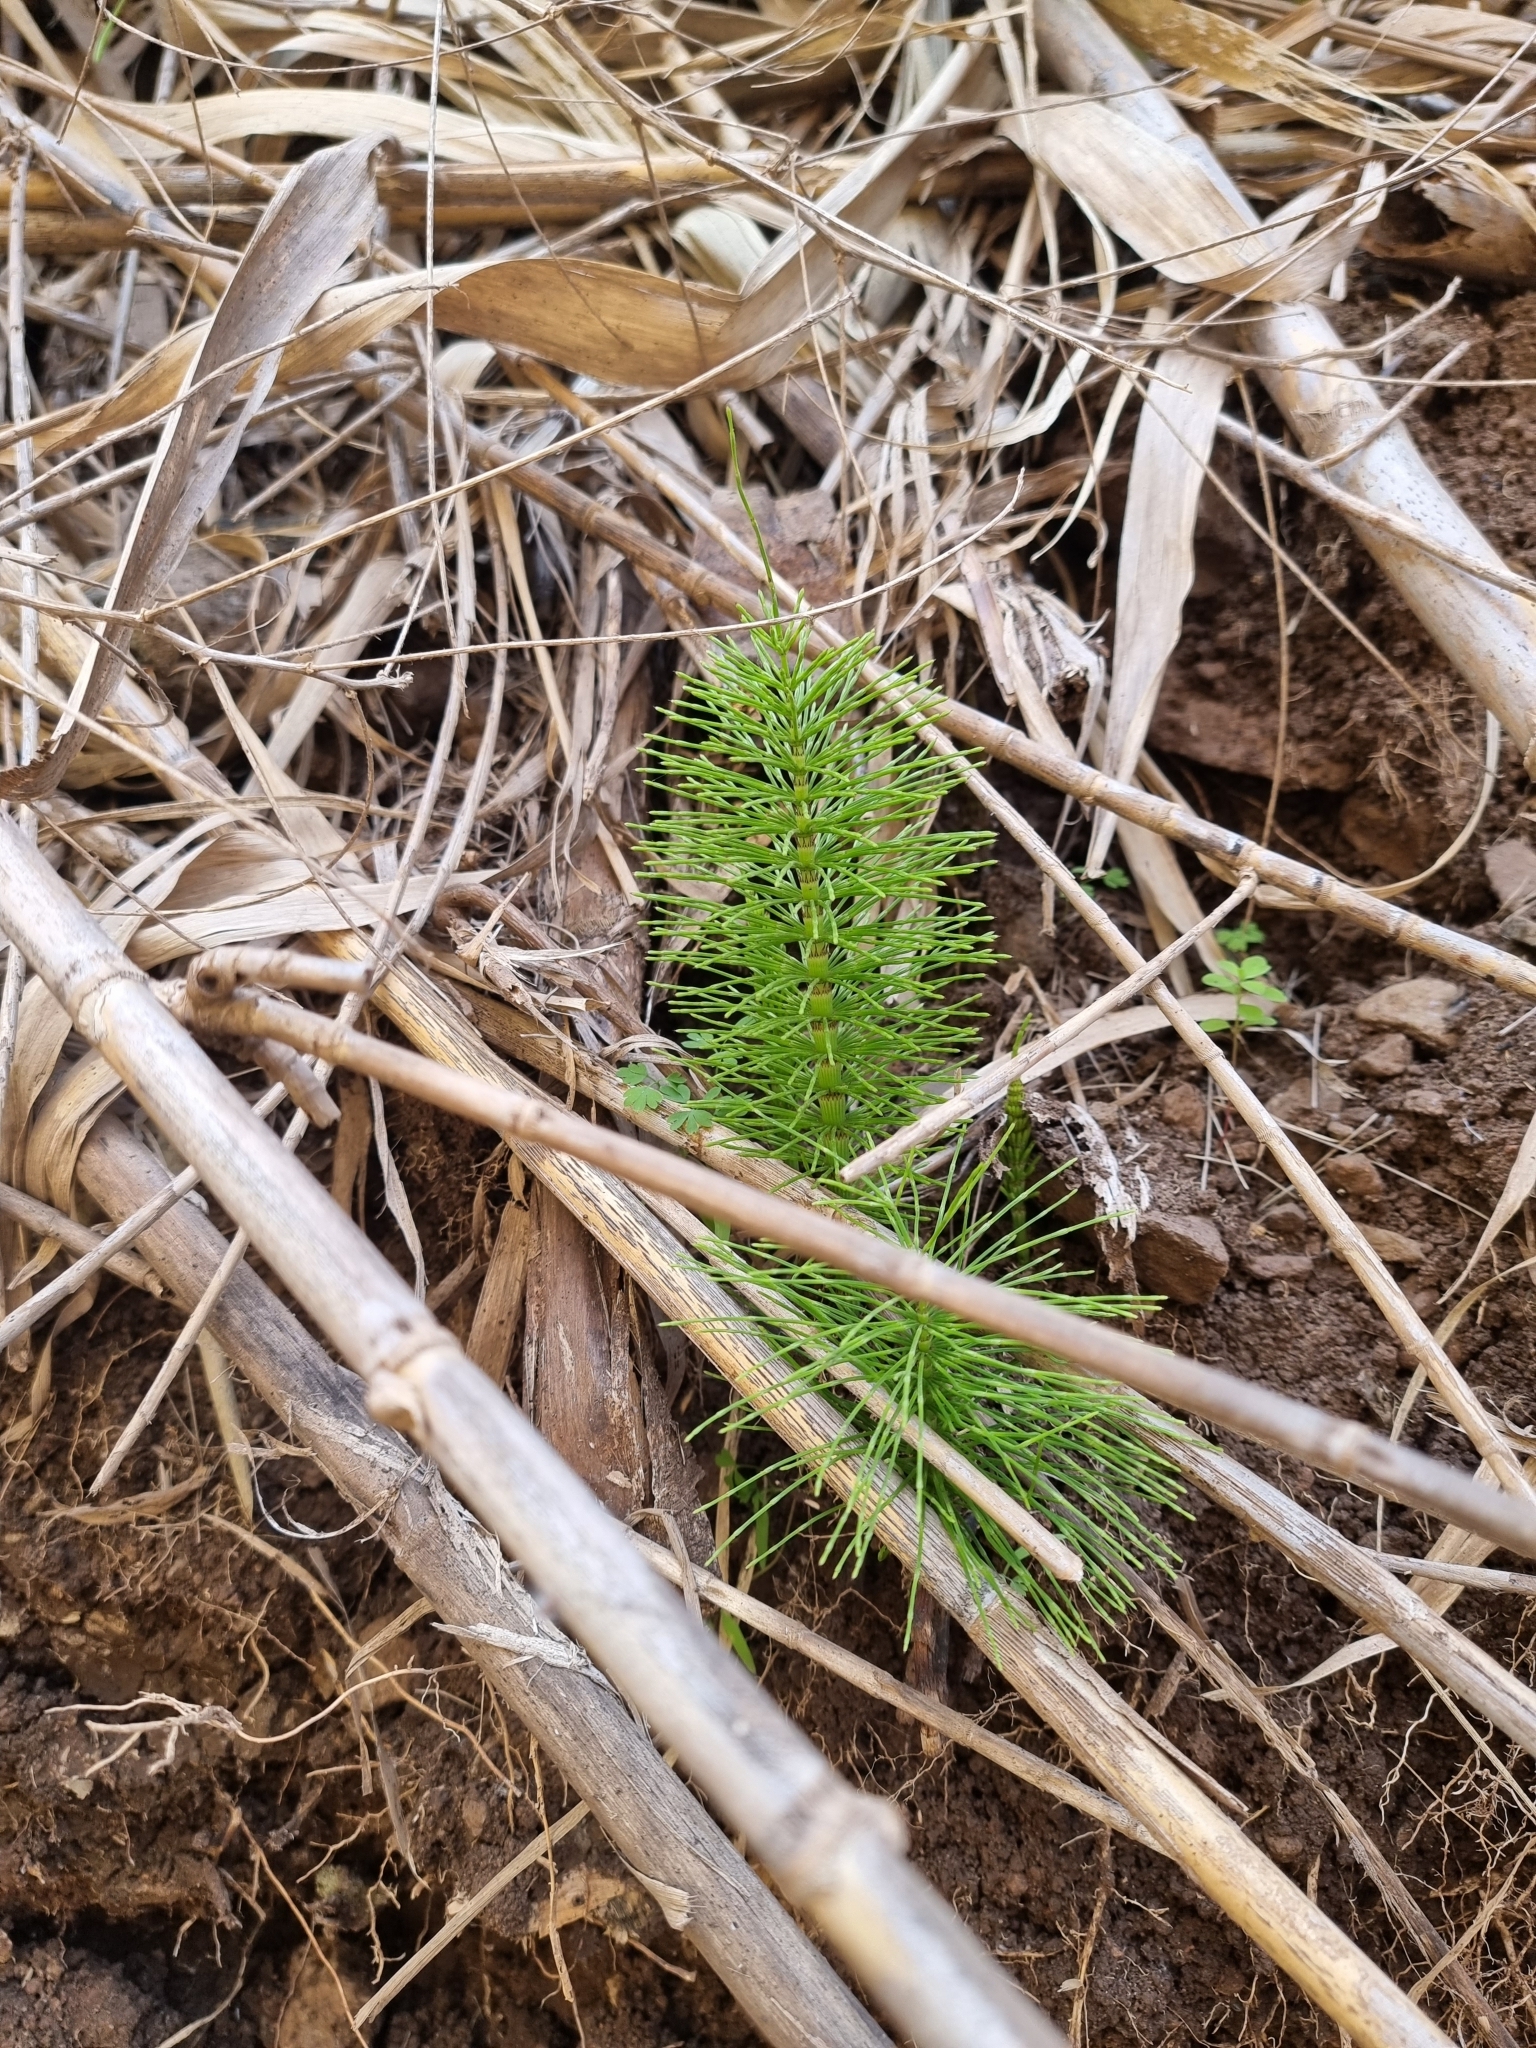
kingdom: Plantae
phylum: Tracheophyta
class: Polypodiopsida
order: Equisetales
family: Equisetaceae
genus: Equisetum
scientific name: Equisetum telmateia
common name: Great horsetail
